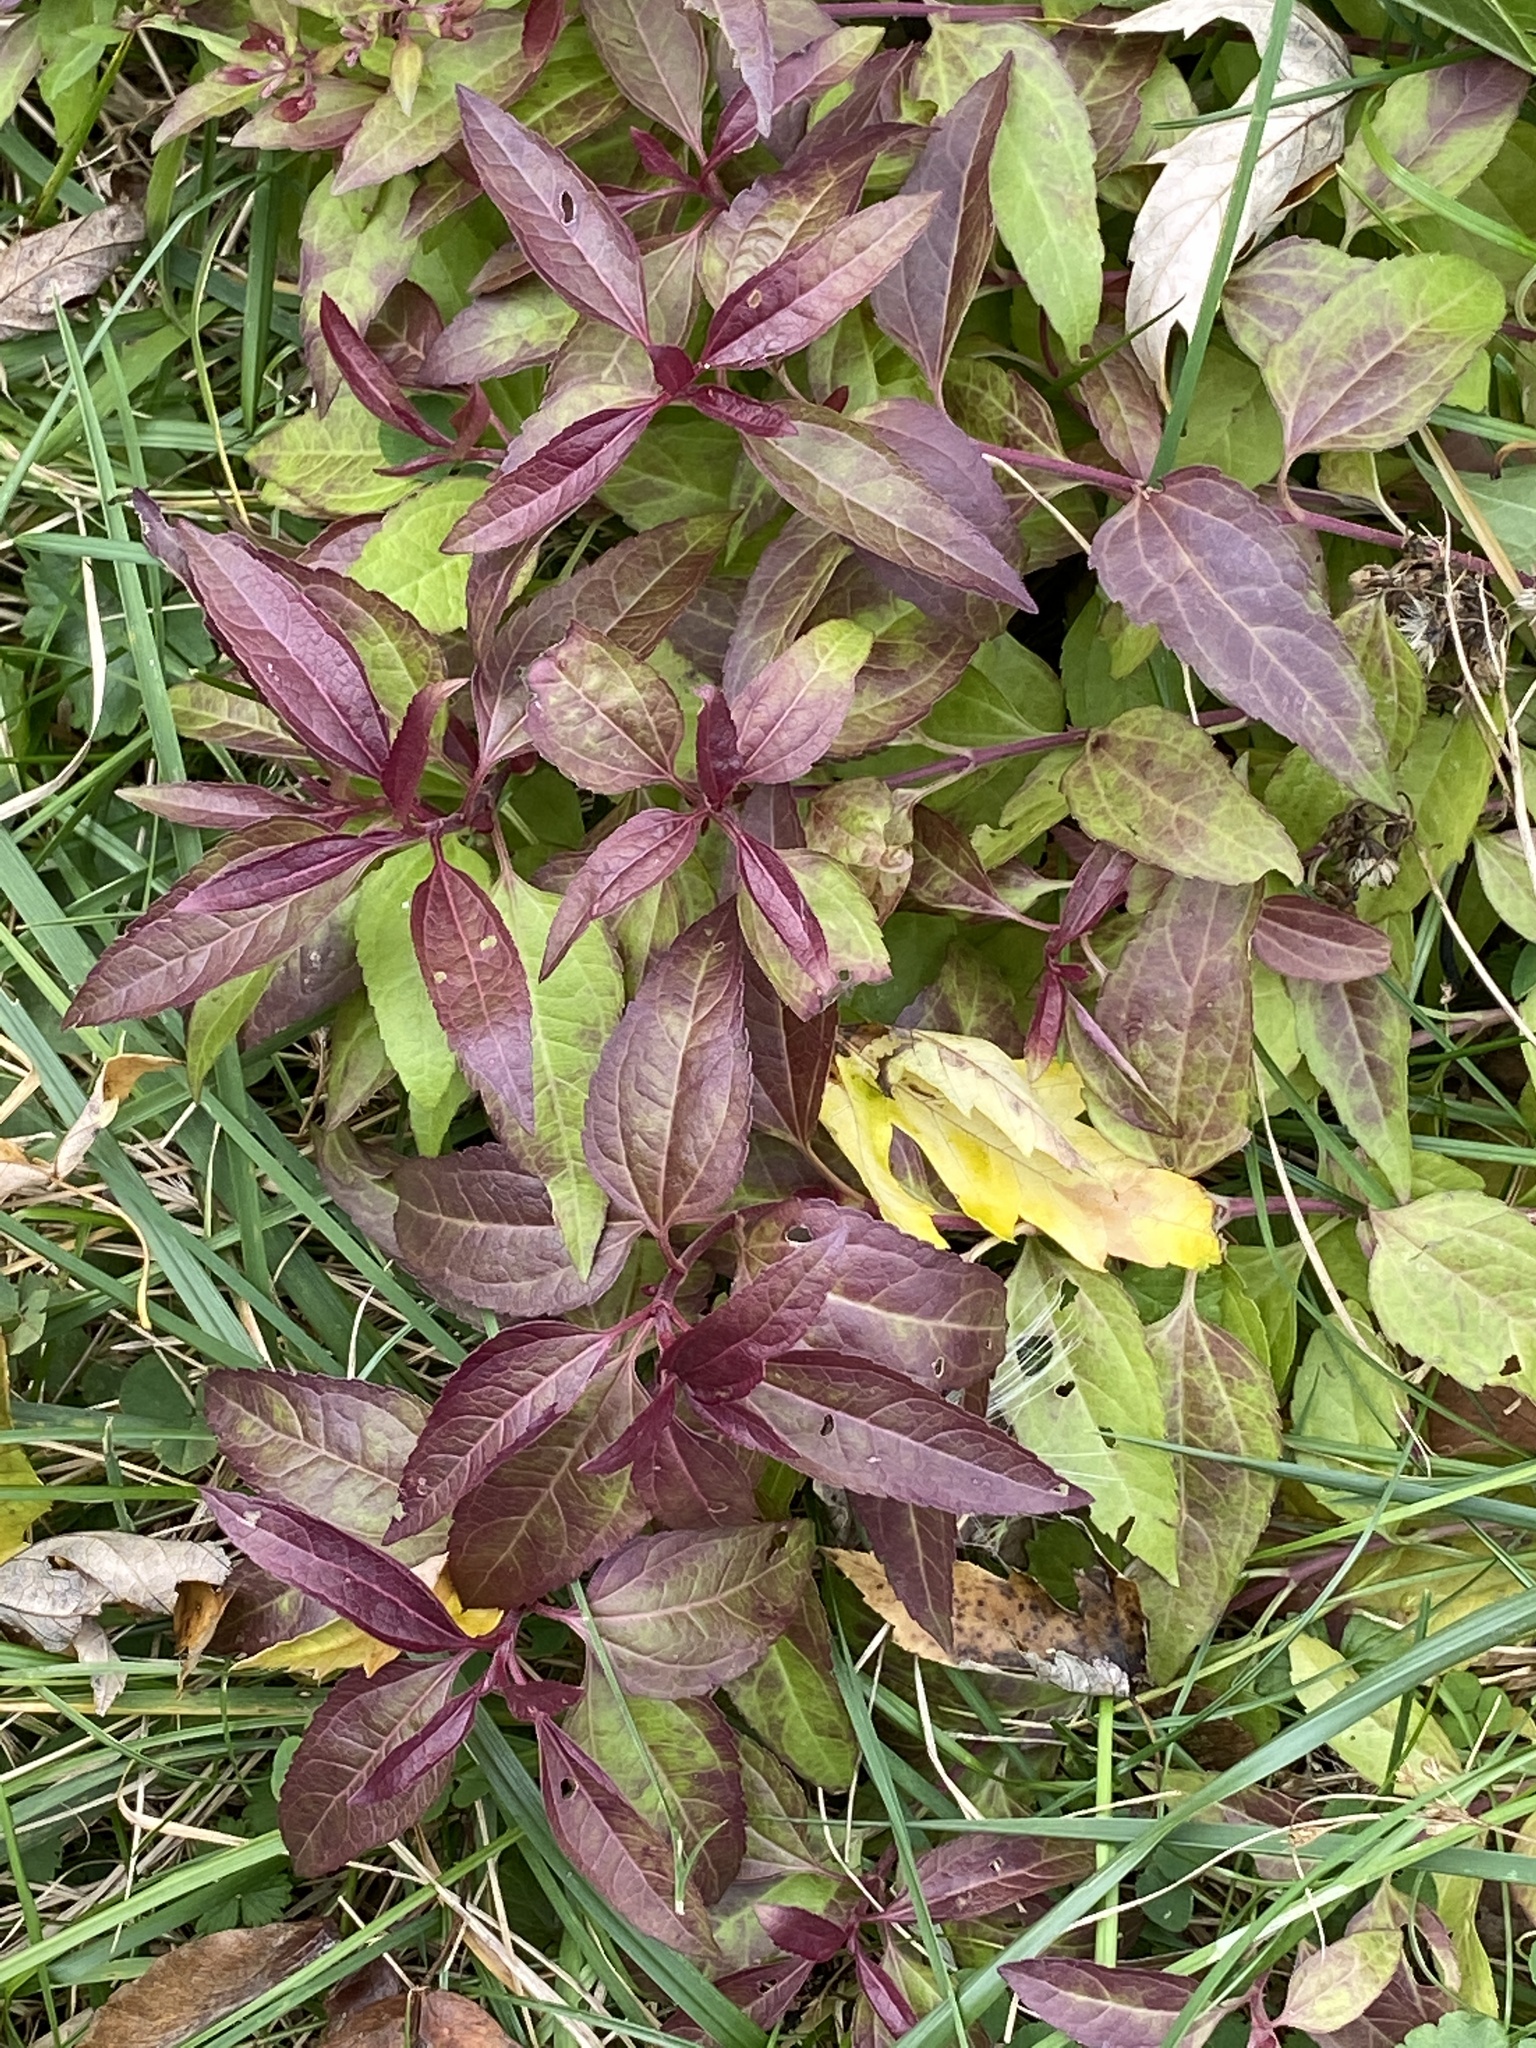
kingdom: Plantae
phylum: Tracheophyta
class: Magnoliopsida
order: Asterales
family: Asteraceae
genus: Eupatorium
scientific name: Eupatorium serotinum
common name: Late boneset
